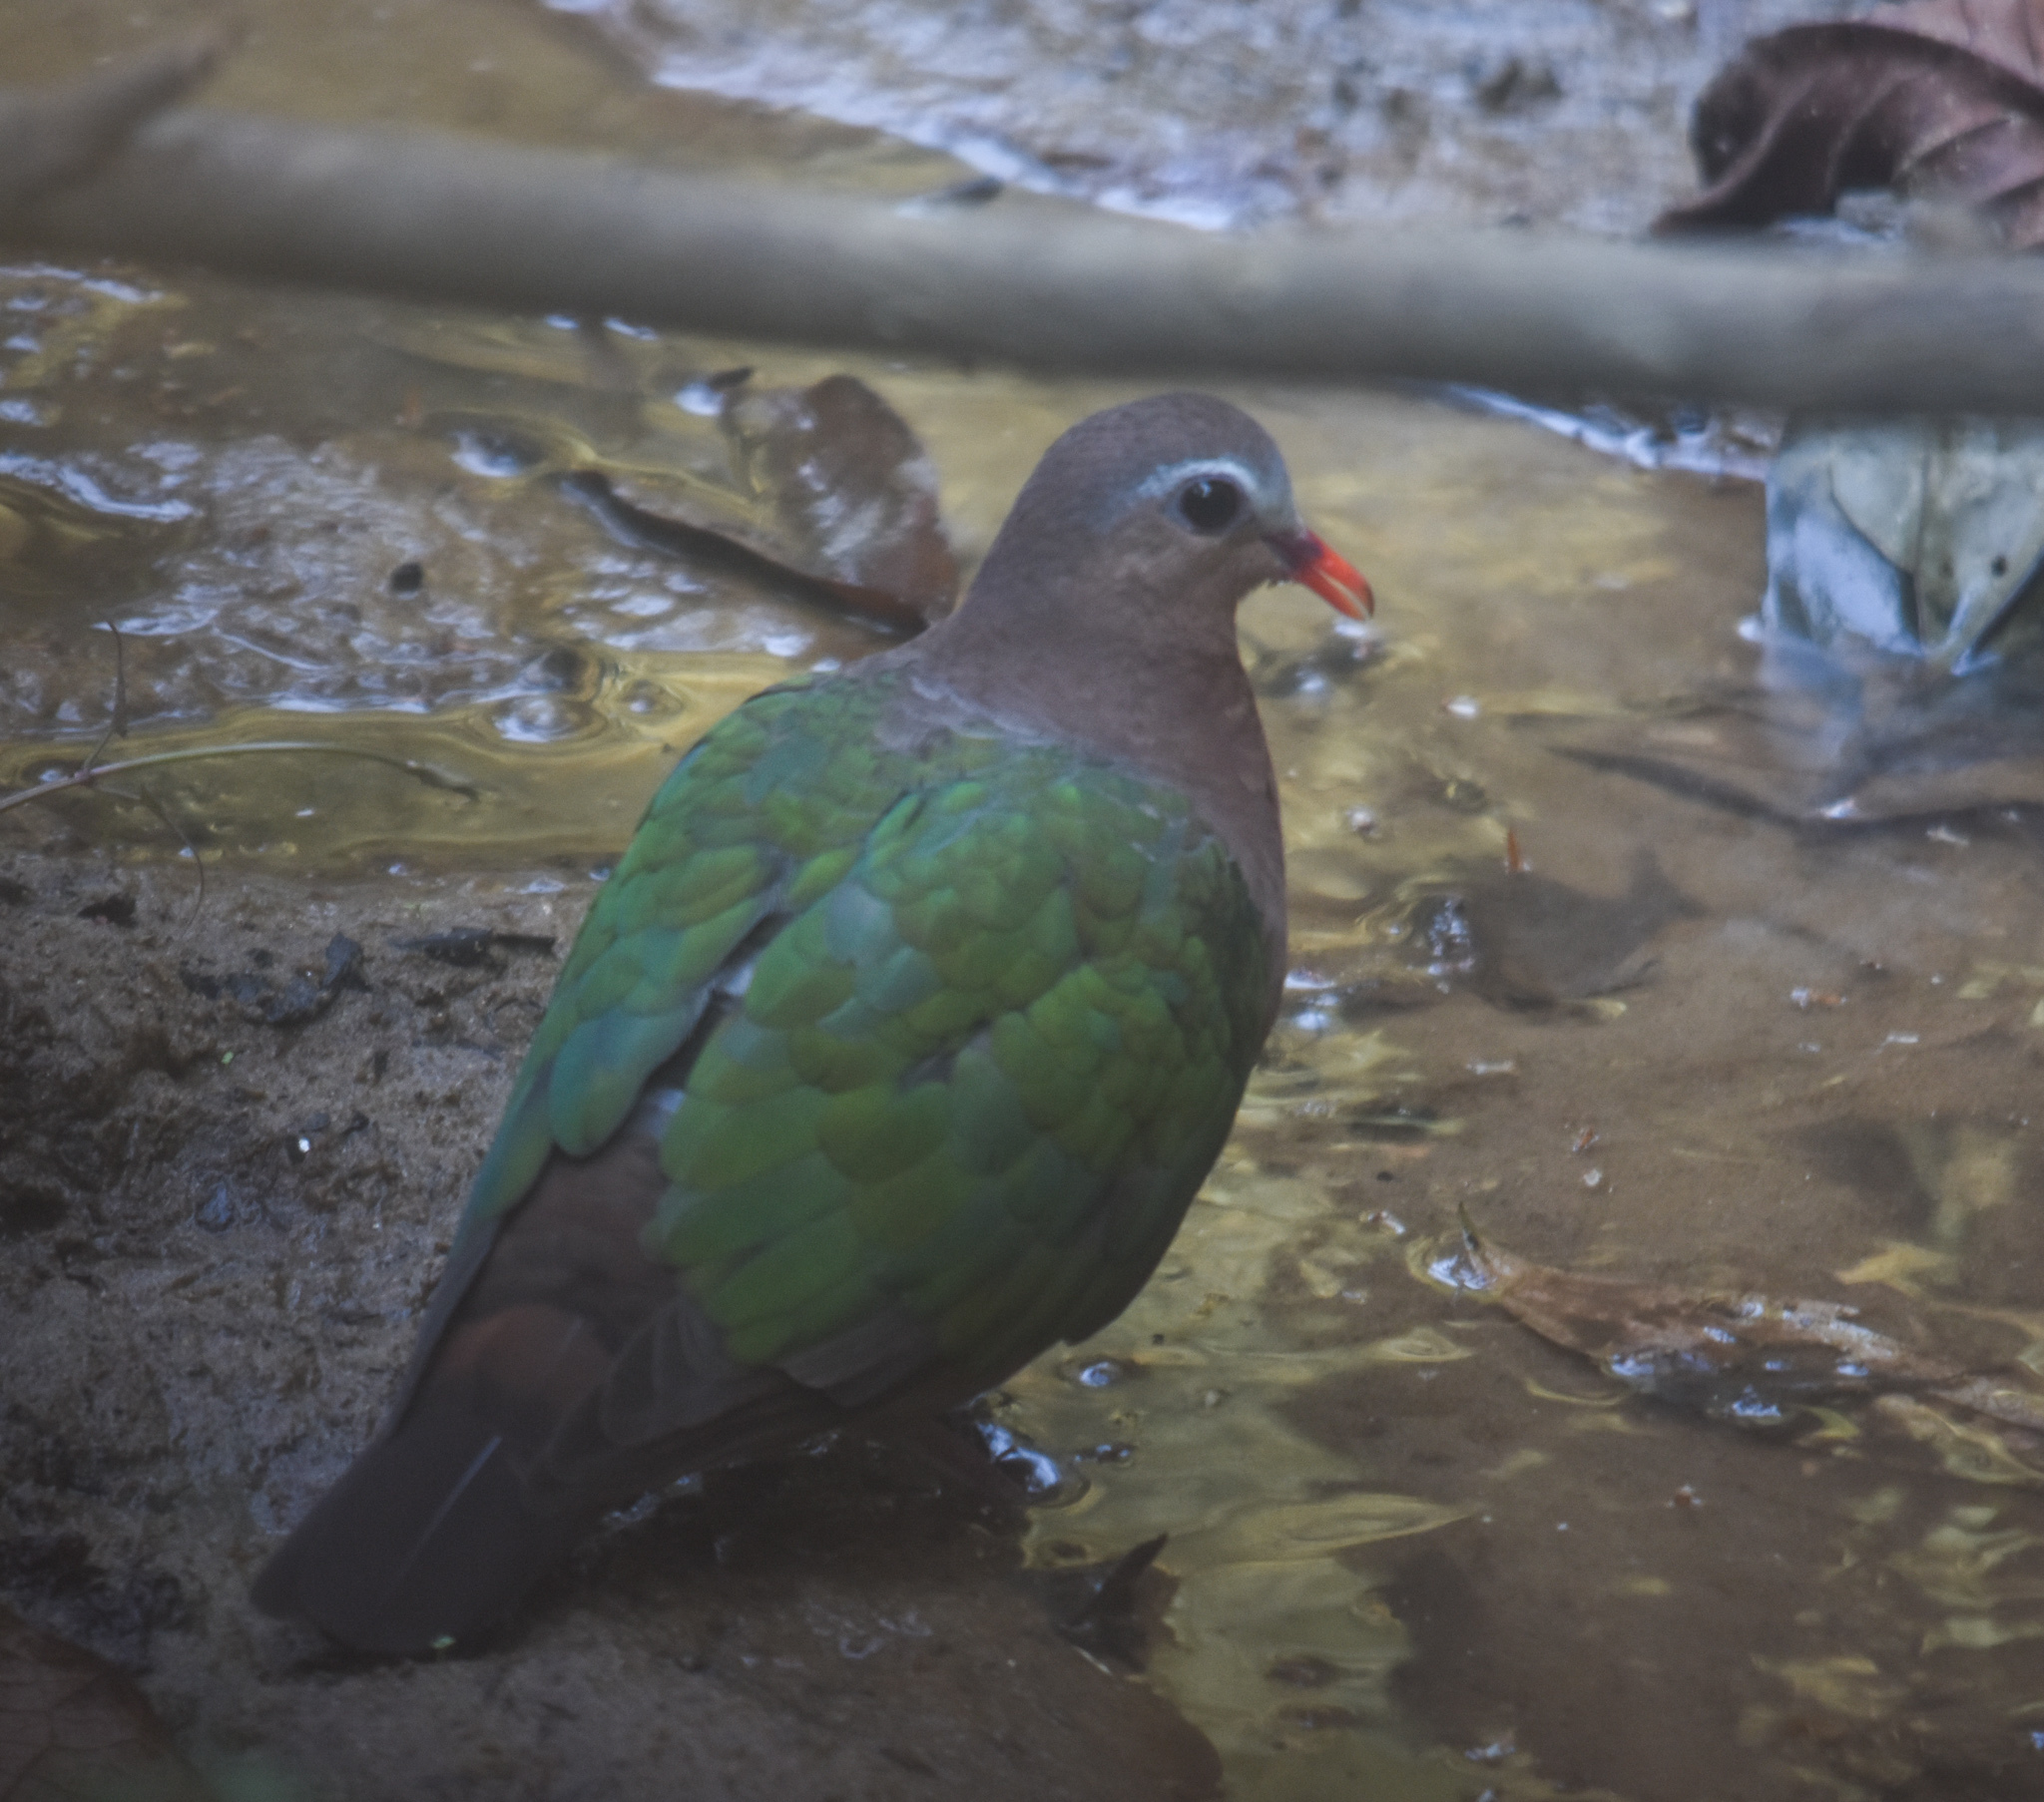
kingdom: Animalia
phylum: Chordata
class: Aves
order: Columbiformes
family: Columbidae
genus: Chalcophaps
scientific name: Chalcophaps indica
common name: Common emerald dove
